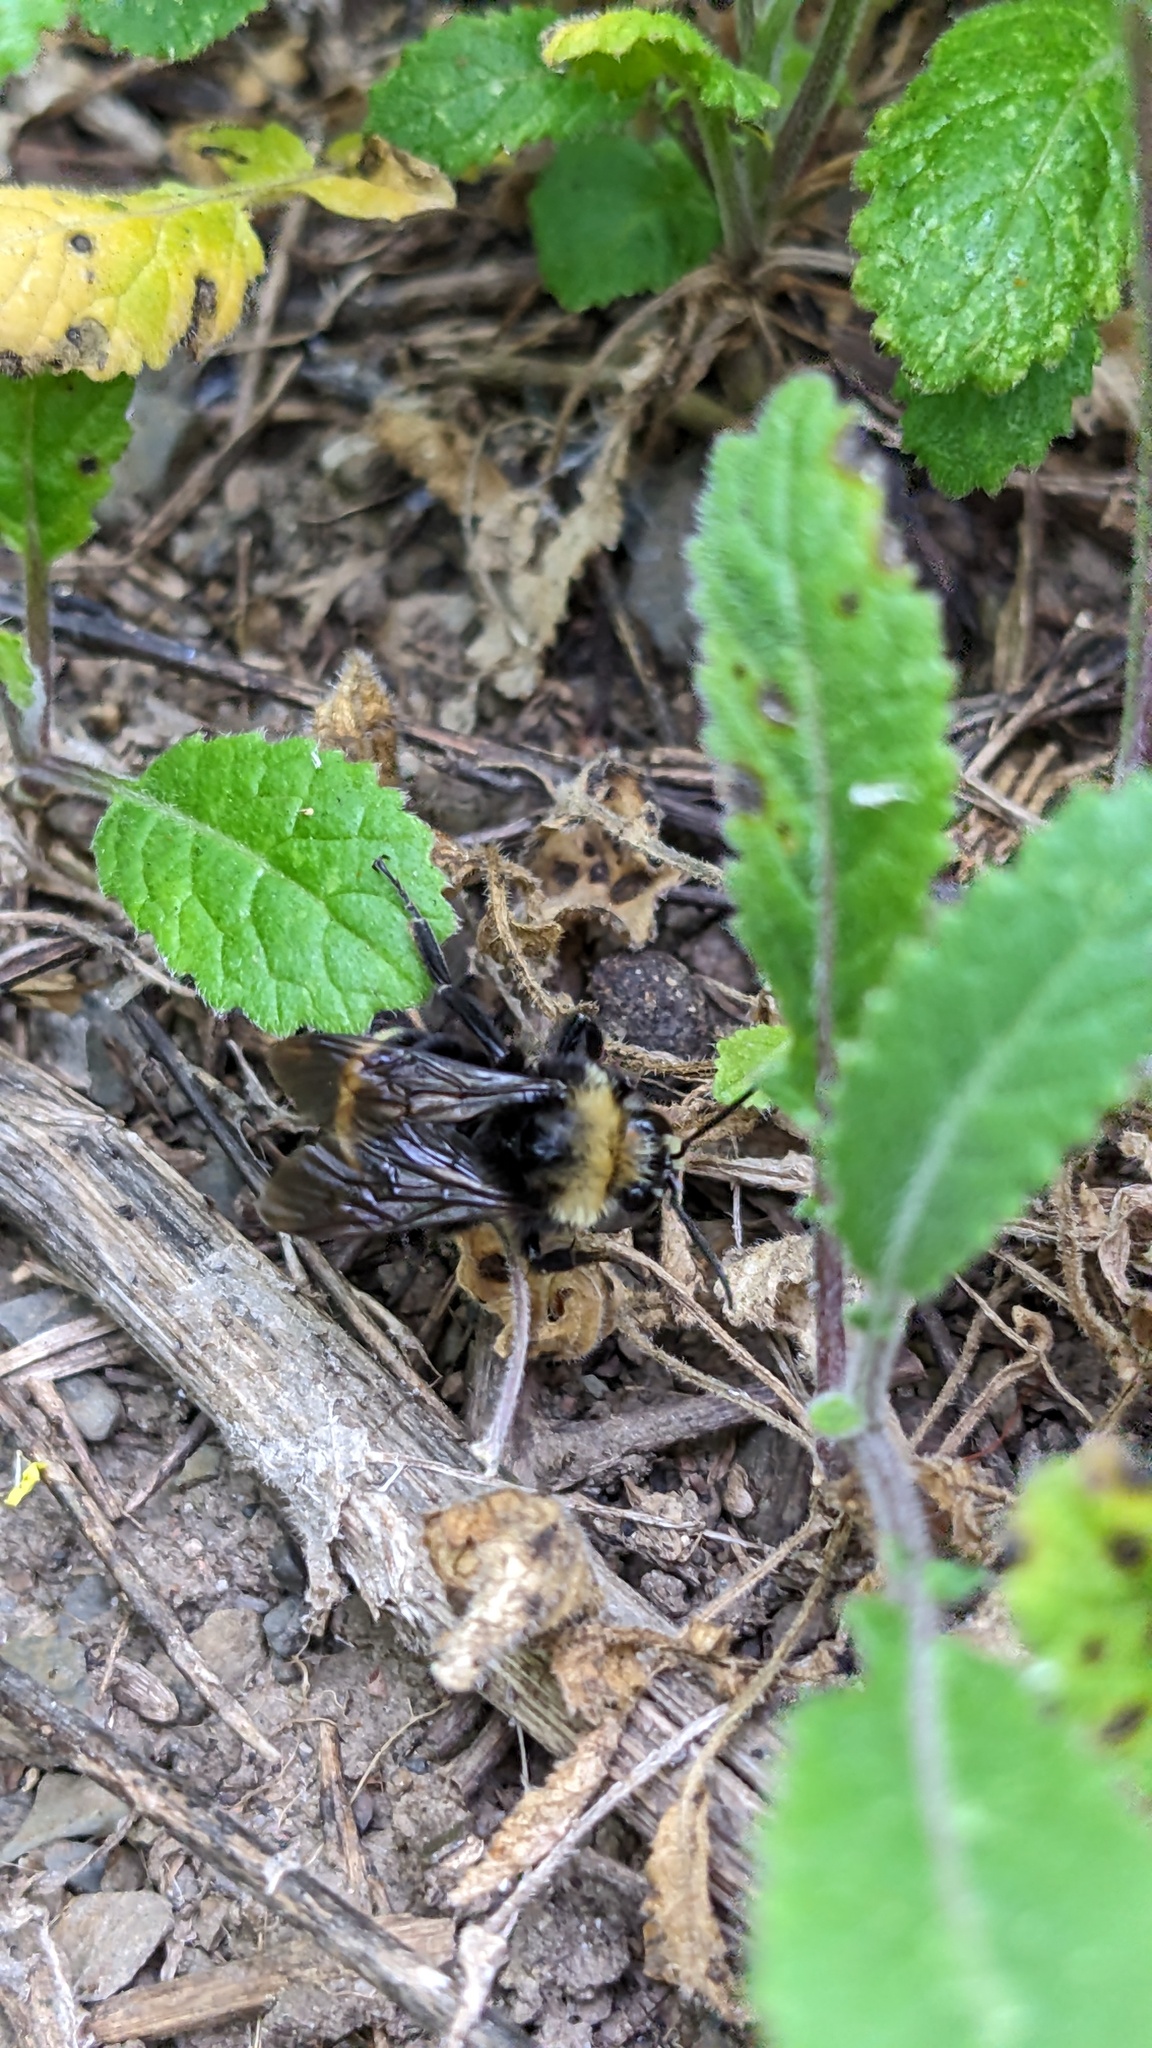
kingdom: Animalia
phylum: Arthropoda
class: Insecta
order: Hymenoptera
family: Apidae
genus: Bombus
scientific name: Bombus vosnesenskii
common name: Vosnesensky bumble bee
